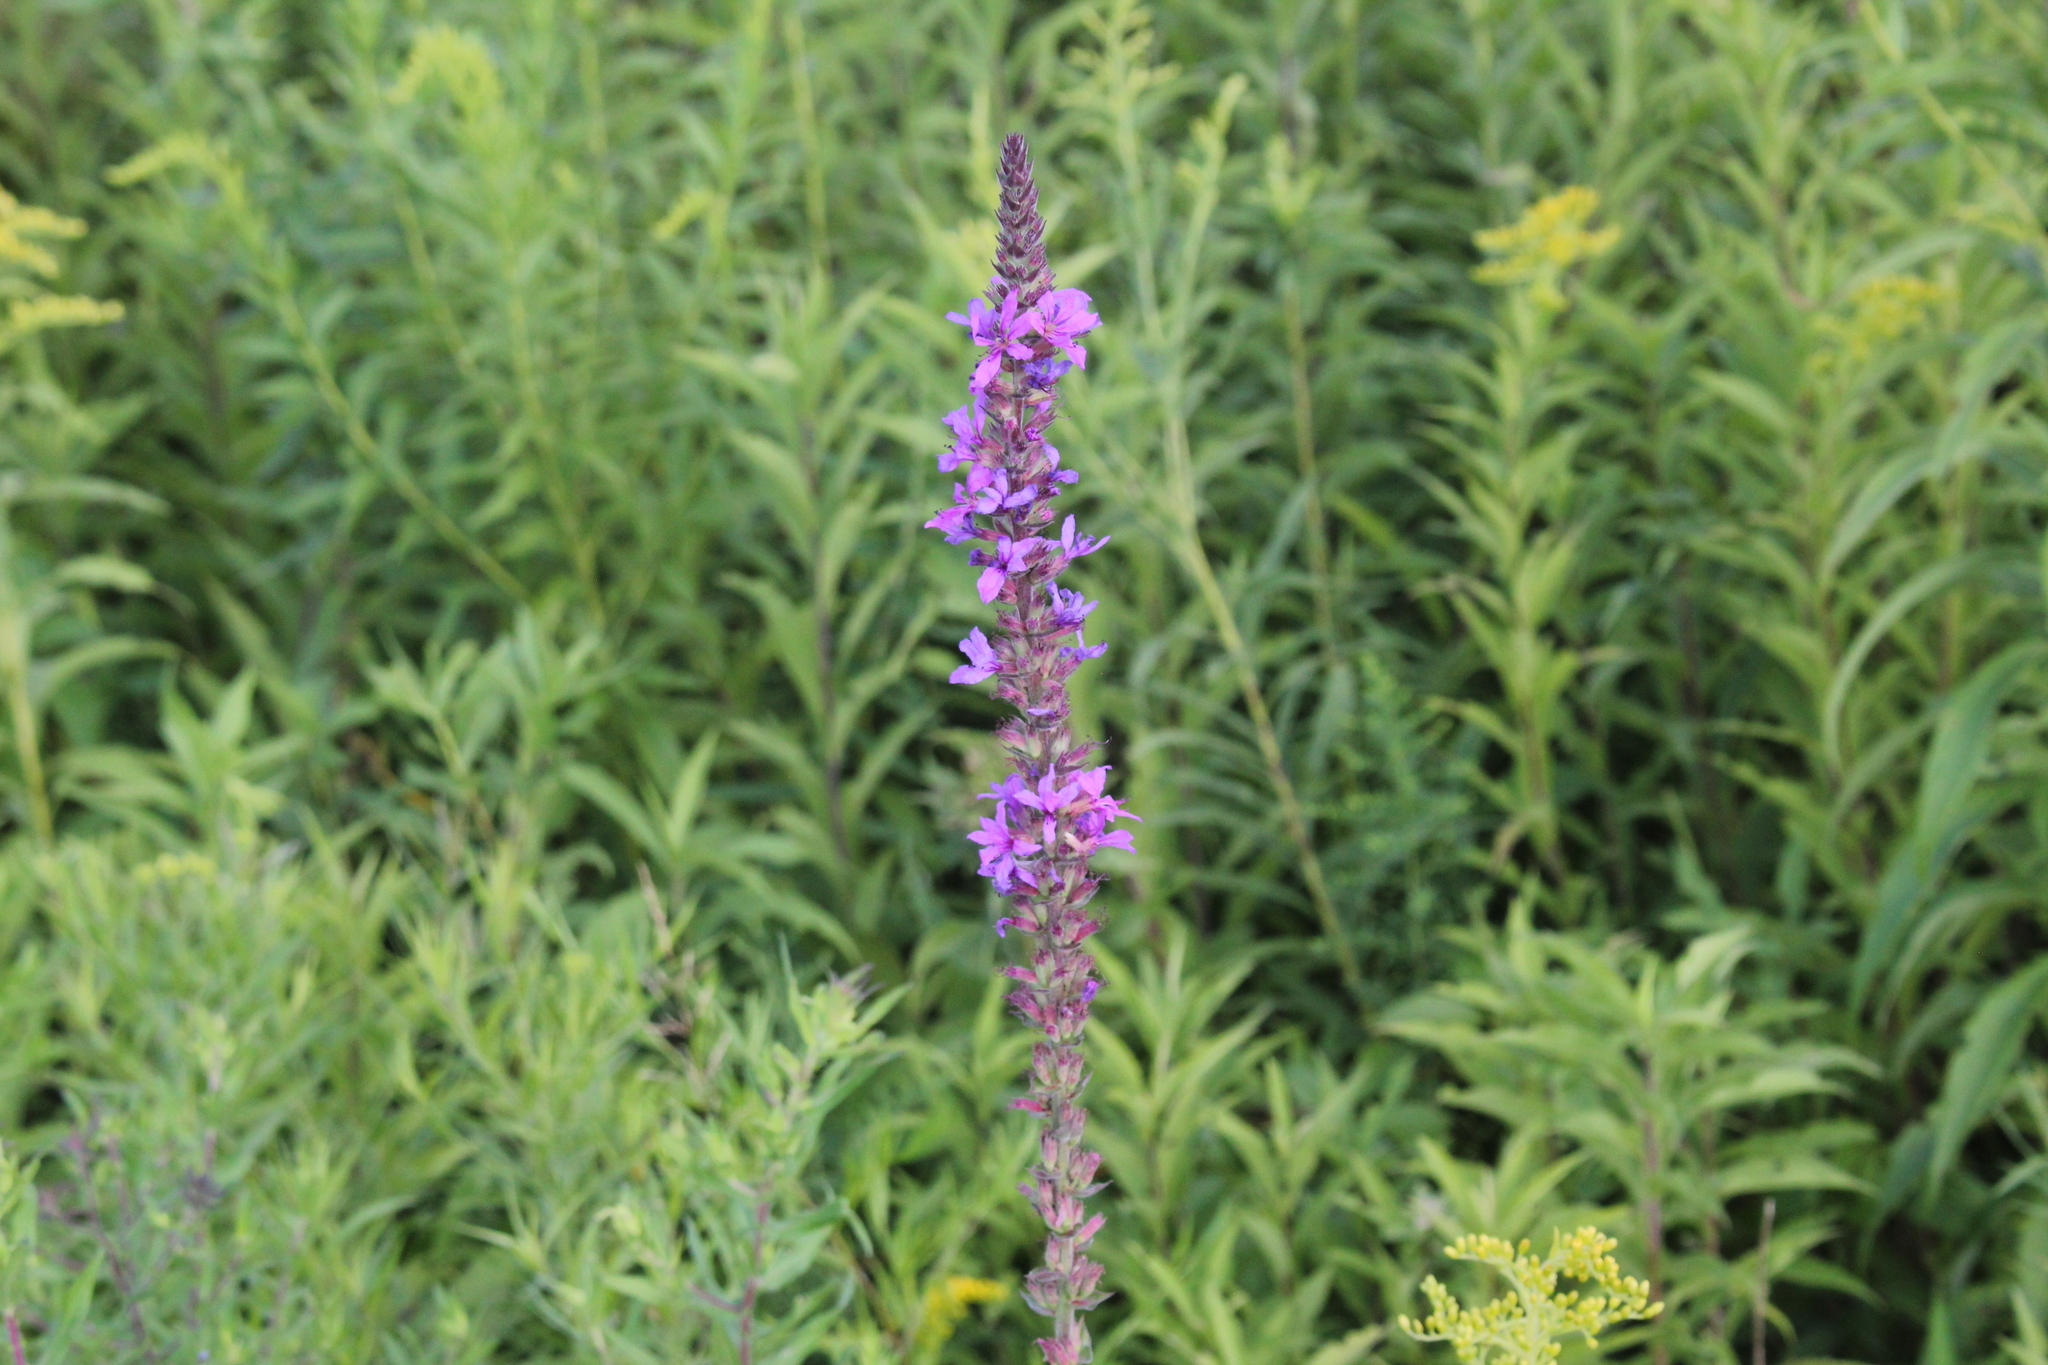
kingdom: Plantae
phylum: Tracheophyta
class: Magnoliopsida
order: Myrtales
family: Lythraceae
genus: Lythrum
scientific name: Lythrum salicaria
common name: Purple loosestrife
